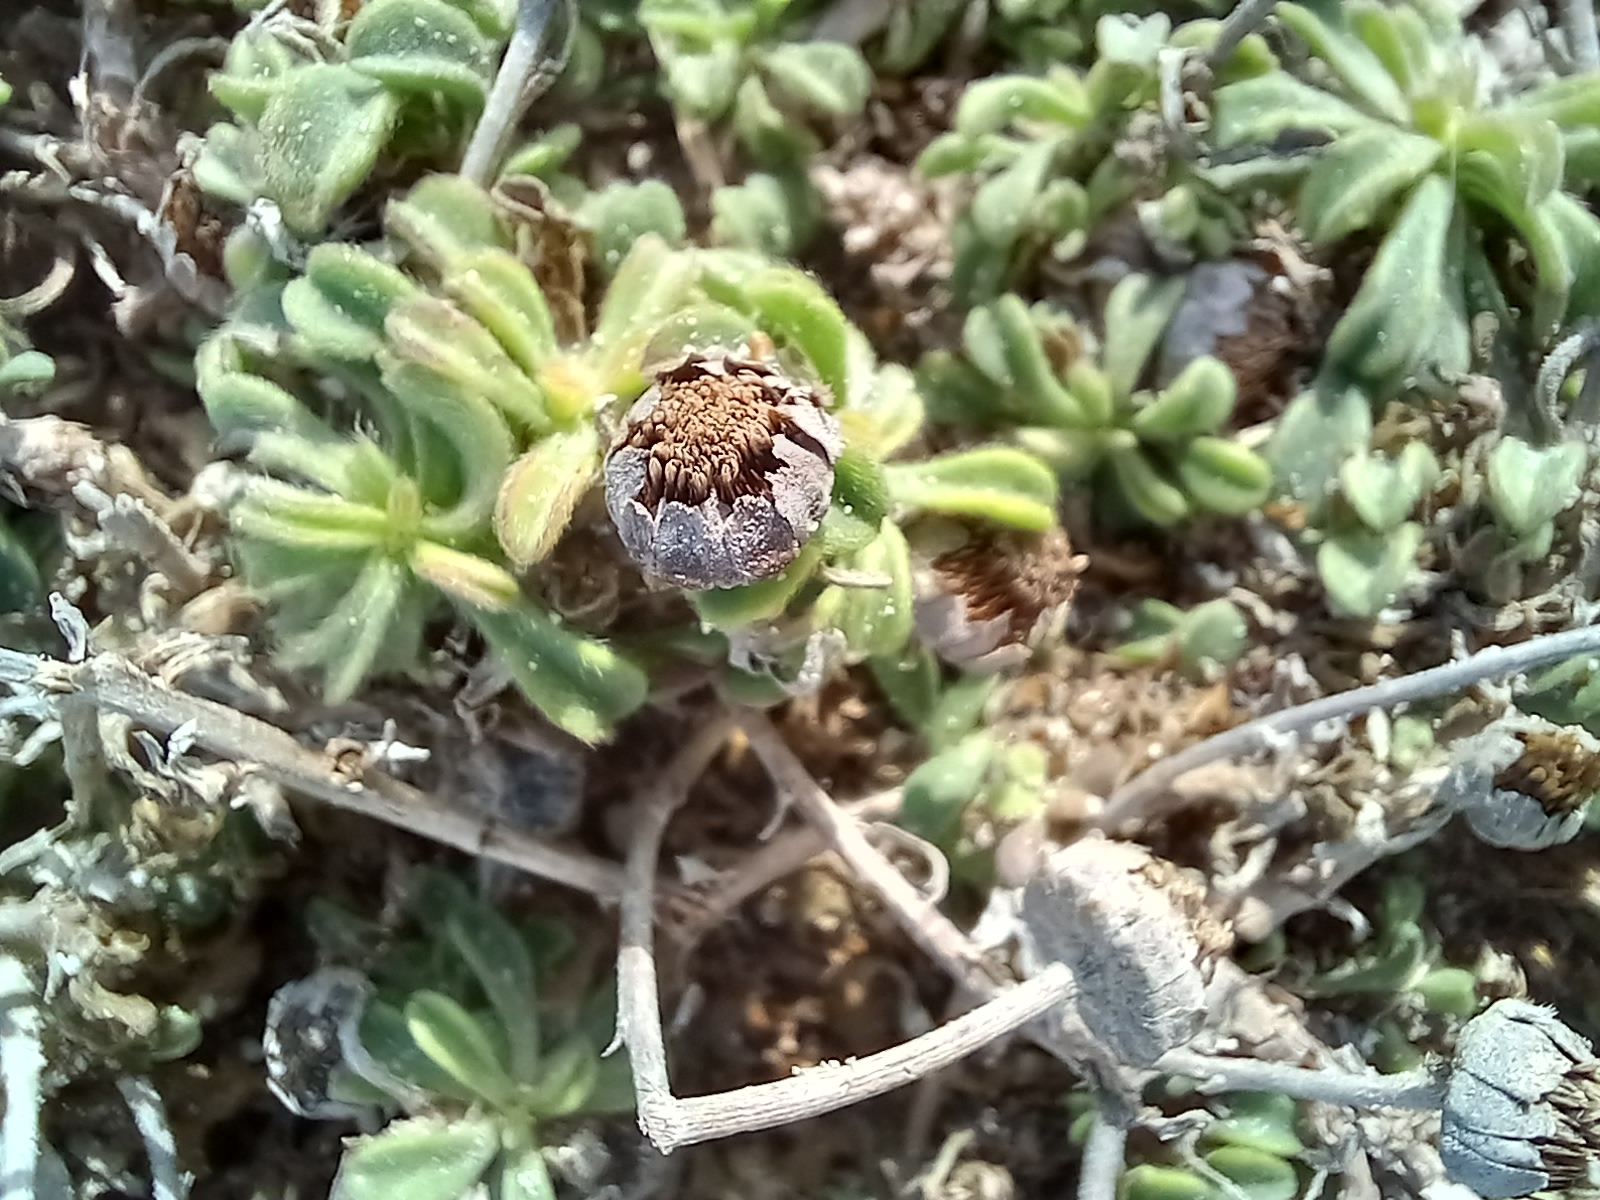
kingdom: Plantae
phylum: Tracheophyta
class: Magnoliopsida
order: Asterales
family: Asteraceae
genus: Pallenis
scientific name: Pallenis maritima
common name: Golden coin daisy
